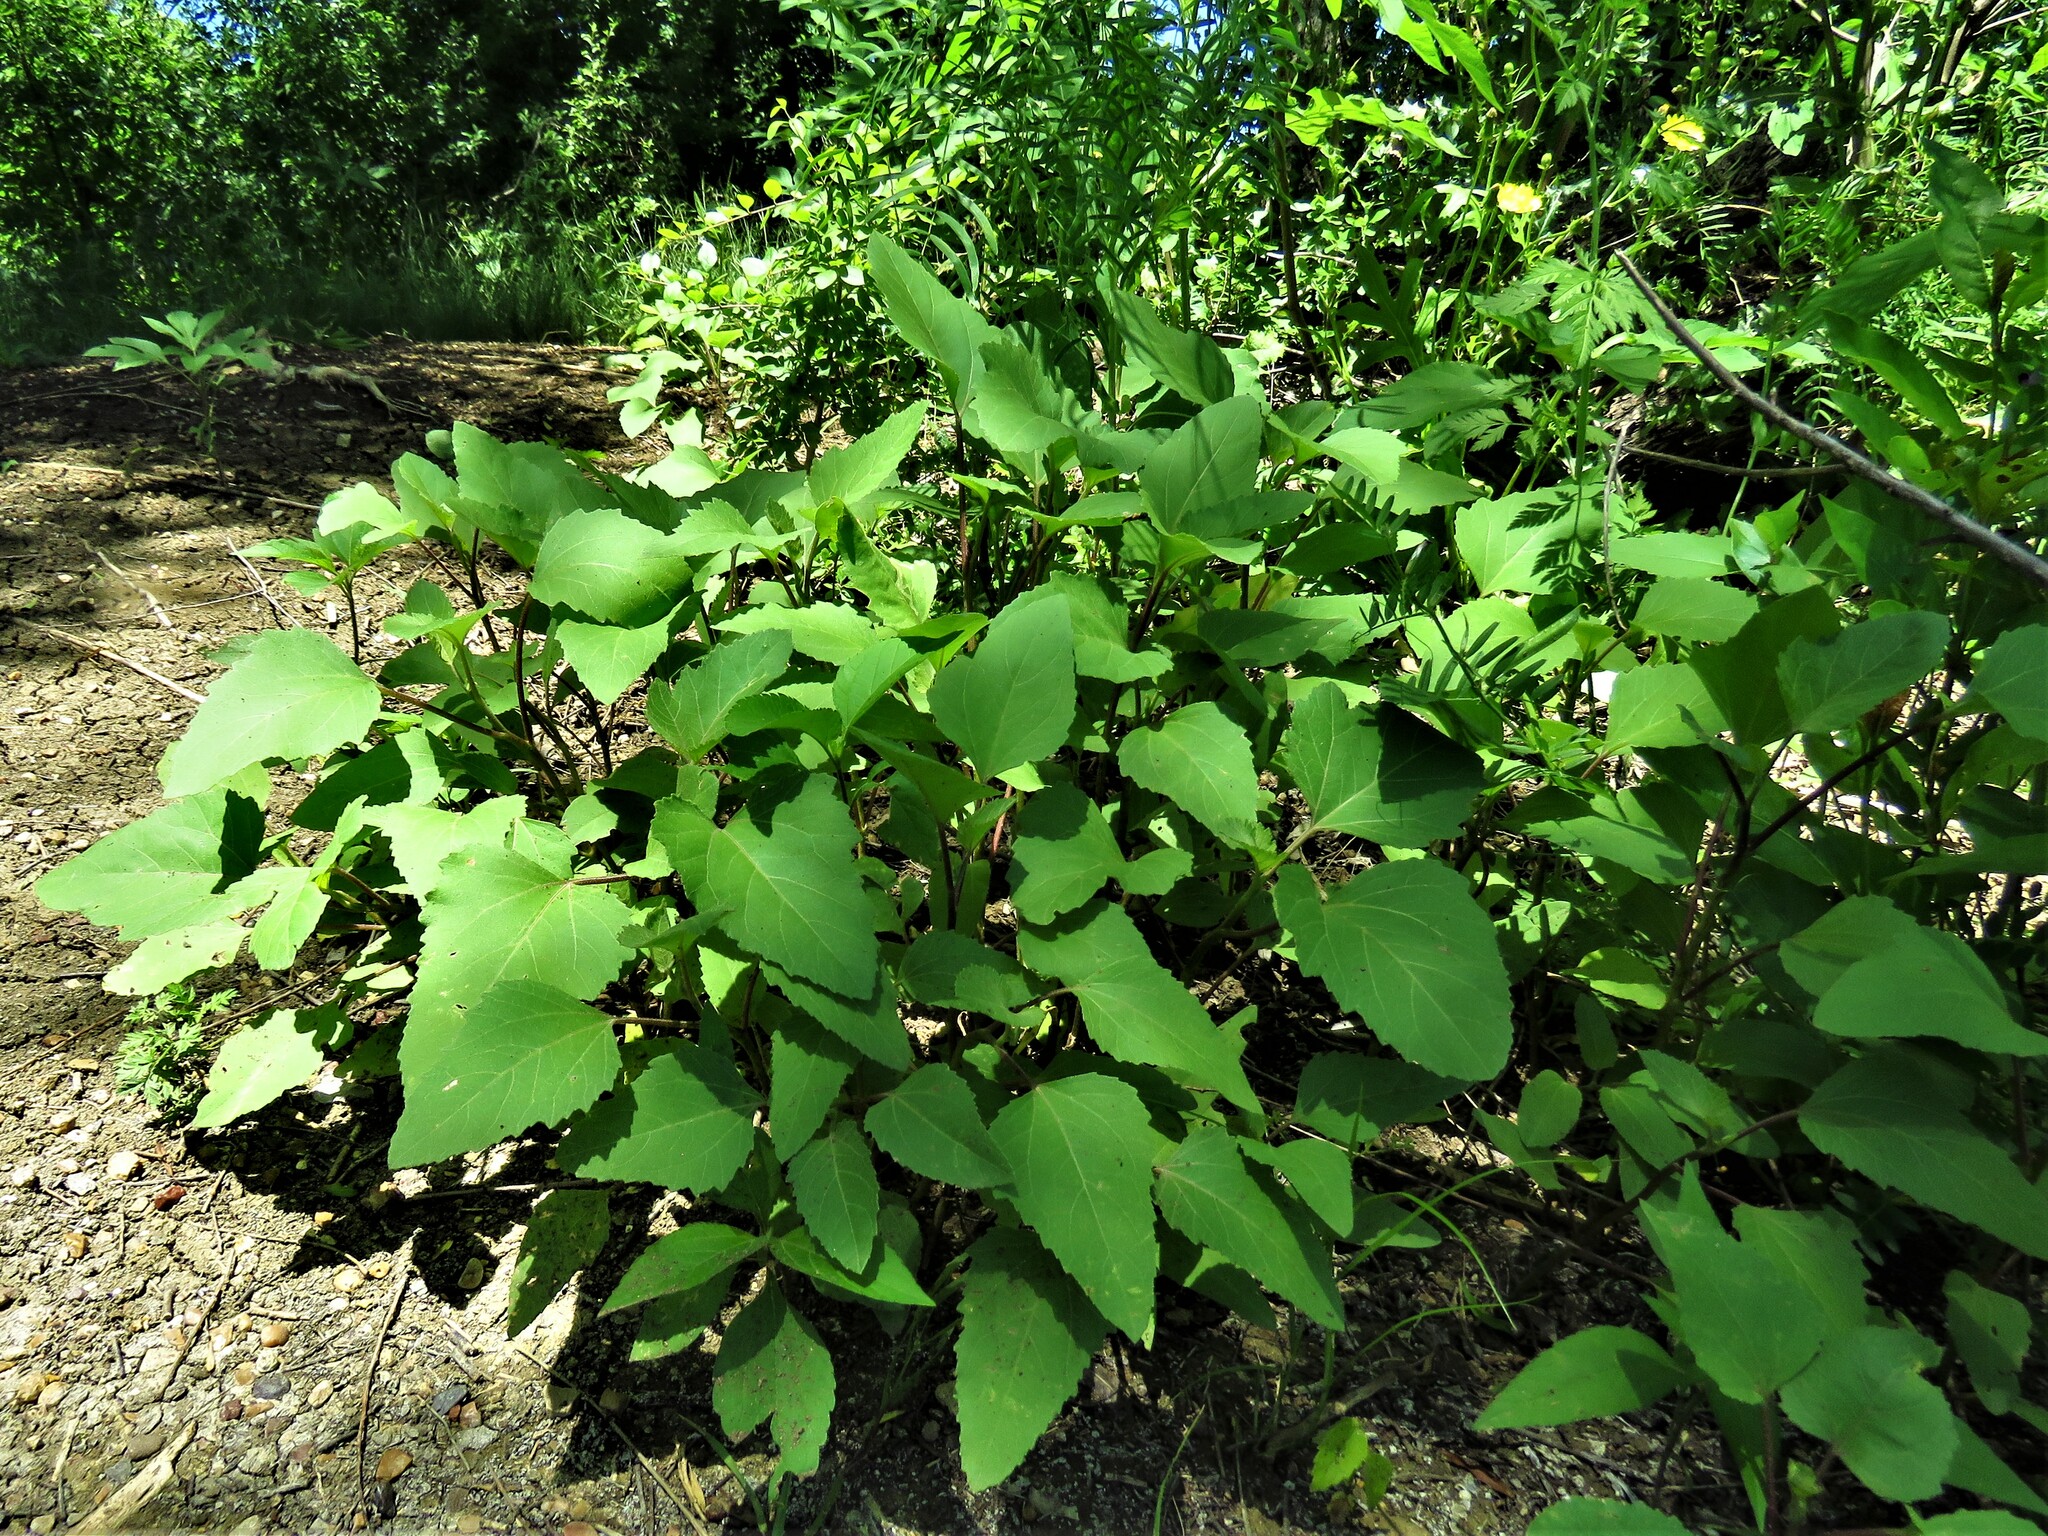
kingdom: Plantae
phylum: Tracheophyta
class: Magnoliopsida
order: Asterales
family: Asteraceae
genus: Xanthium
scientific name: Xanthium strumarium
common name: Rough cocklebur
